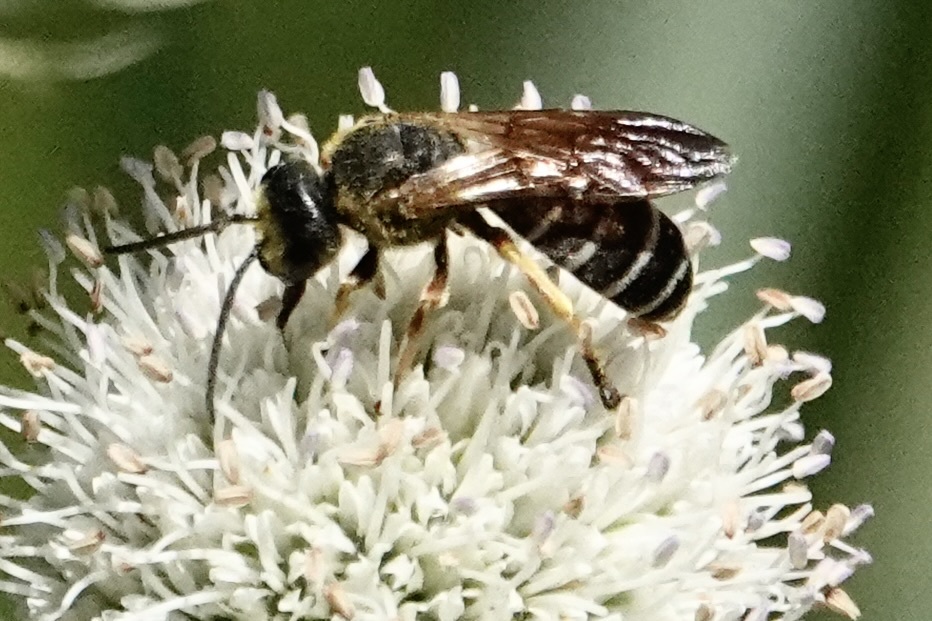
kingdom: Animalia
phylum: Arthropoda
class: Insecta
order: Hymenoptera
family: Halictidae
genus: Halictus
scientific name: Halictus parallelus
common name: Parallel-striped sweat bee
